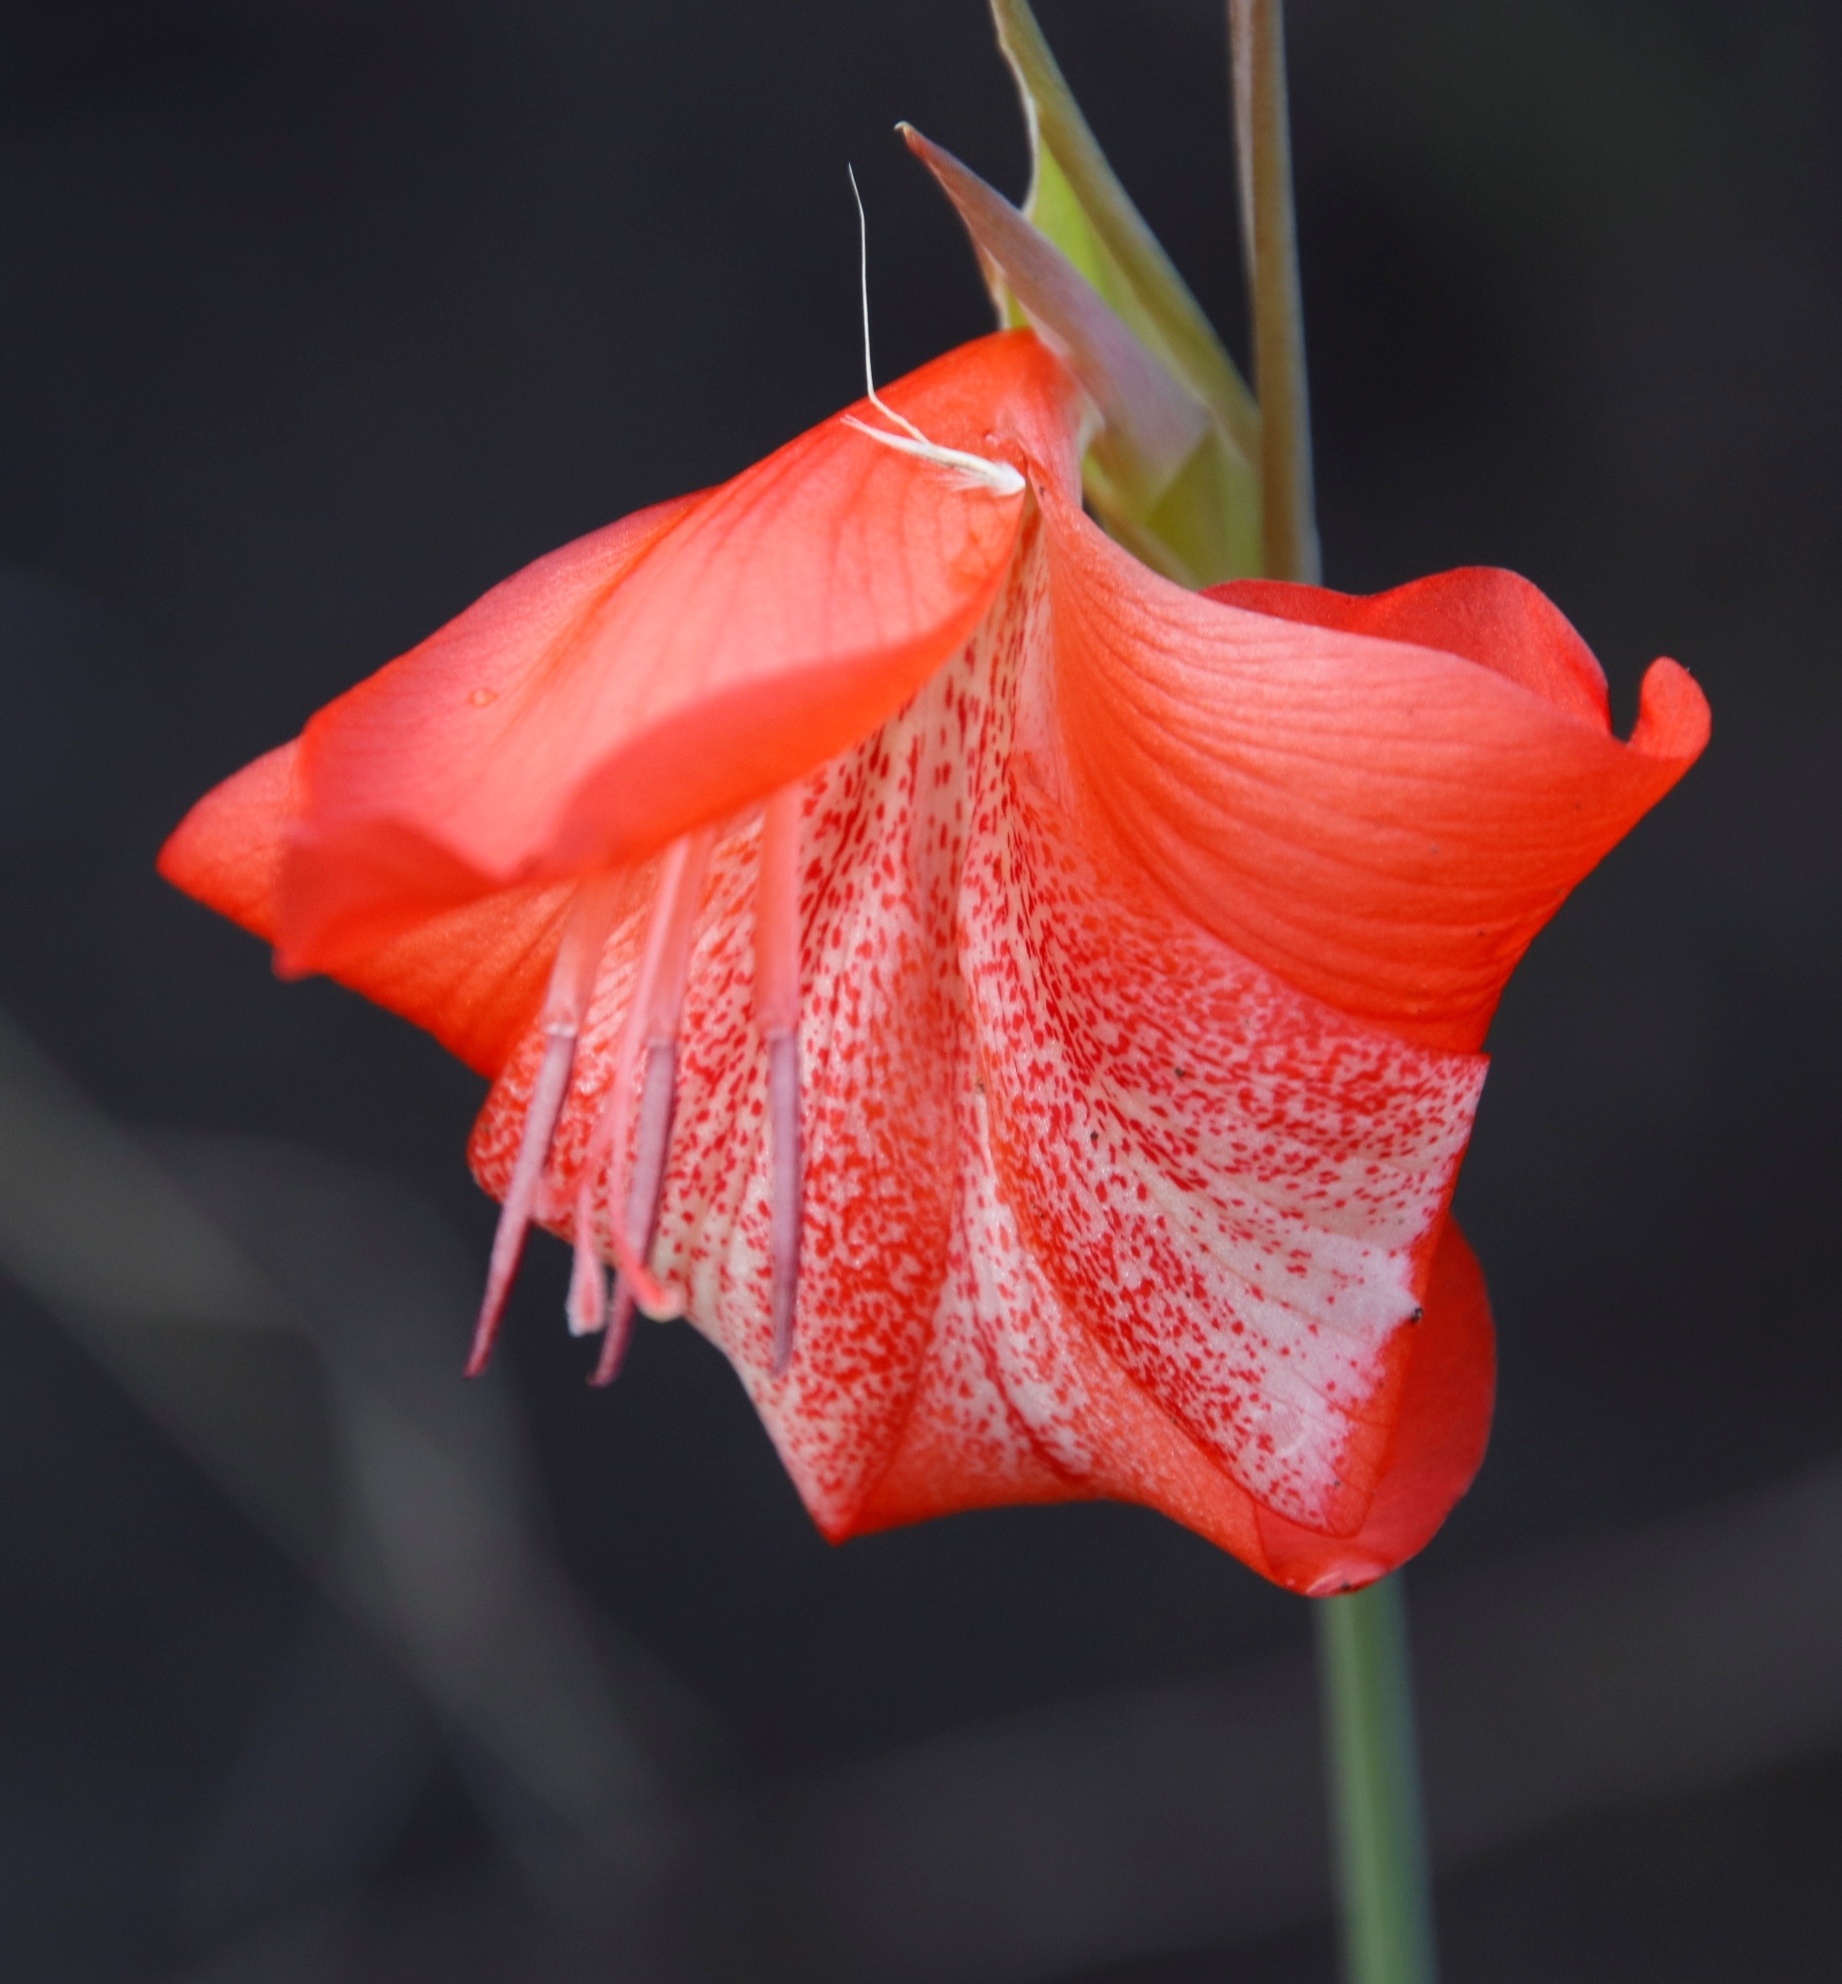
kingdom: Plantae
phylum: Tracheophyta
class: Liliopsida
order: Asparagales
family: Iridaceae
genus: Gladiolus
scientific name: Gladiolus saundersii
